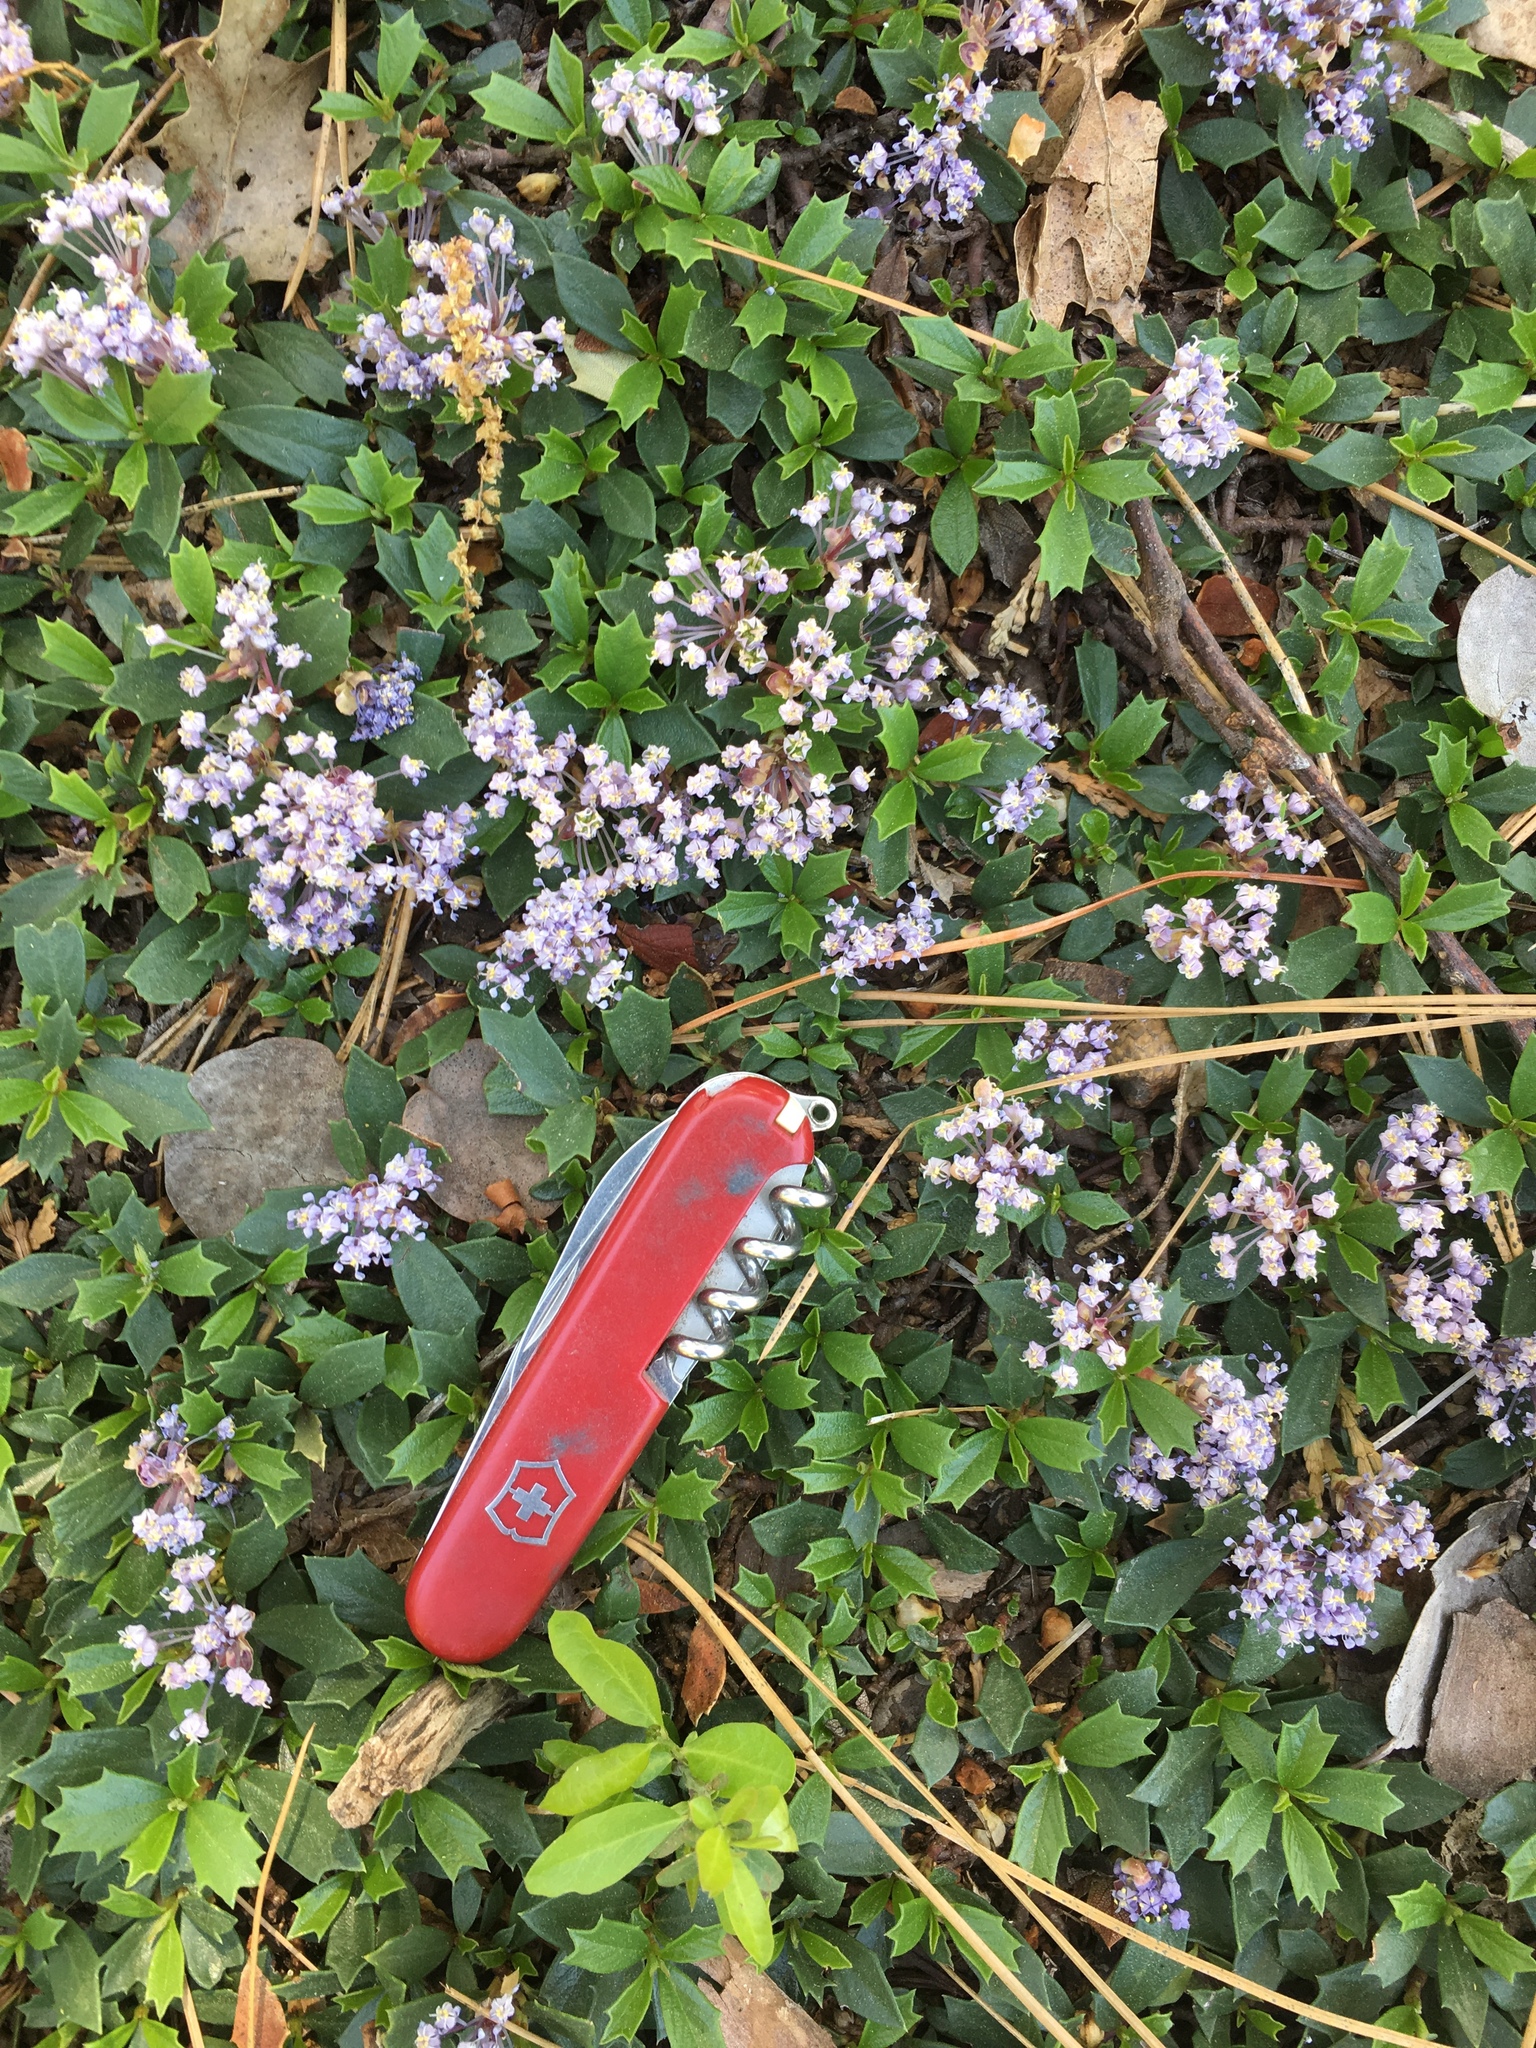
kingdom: Plantae
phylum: Tracheophyta
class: Magnoliopsida
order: Rosales
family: Rhamnaceae
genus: Ceanothus
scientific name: Ceanothus prostratus
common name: Mahala-mat
